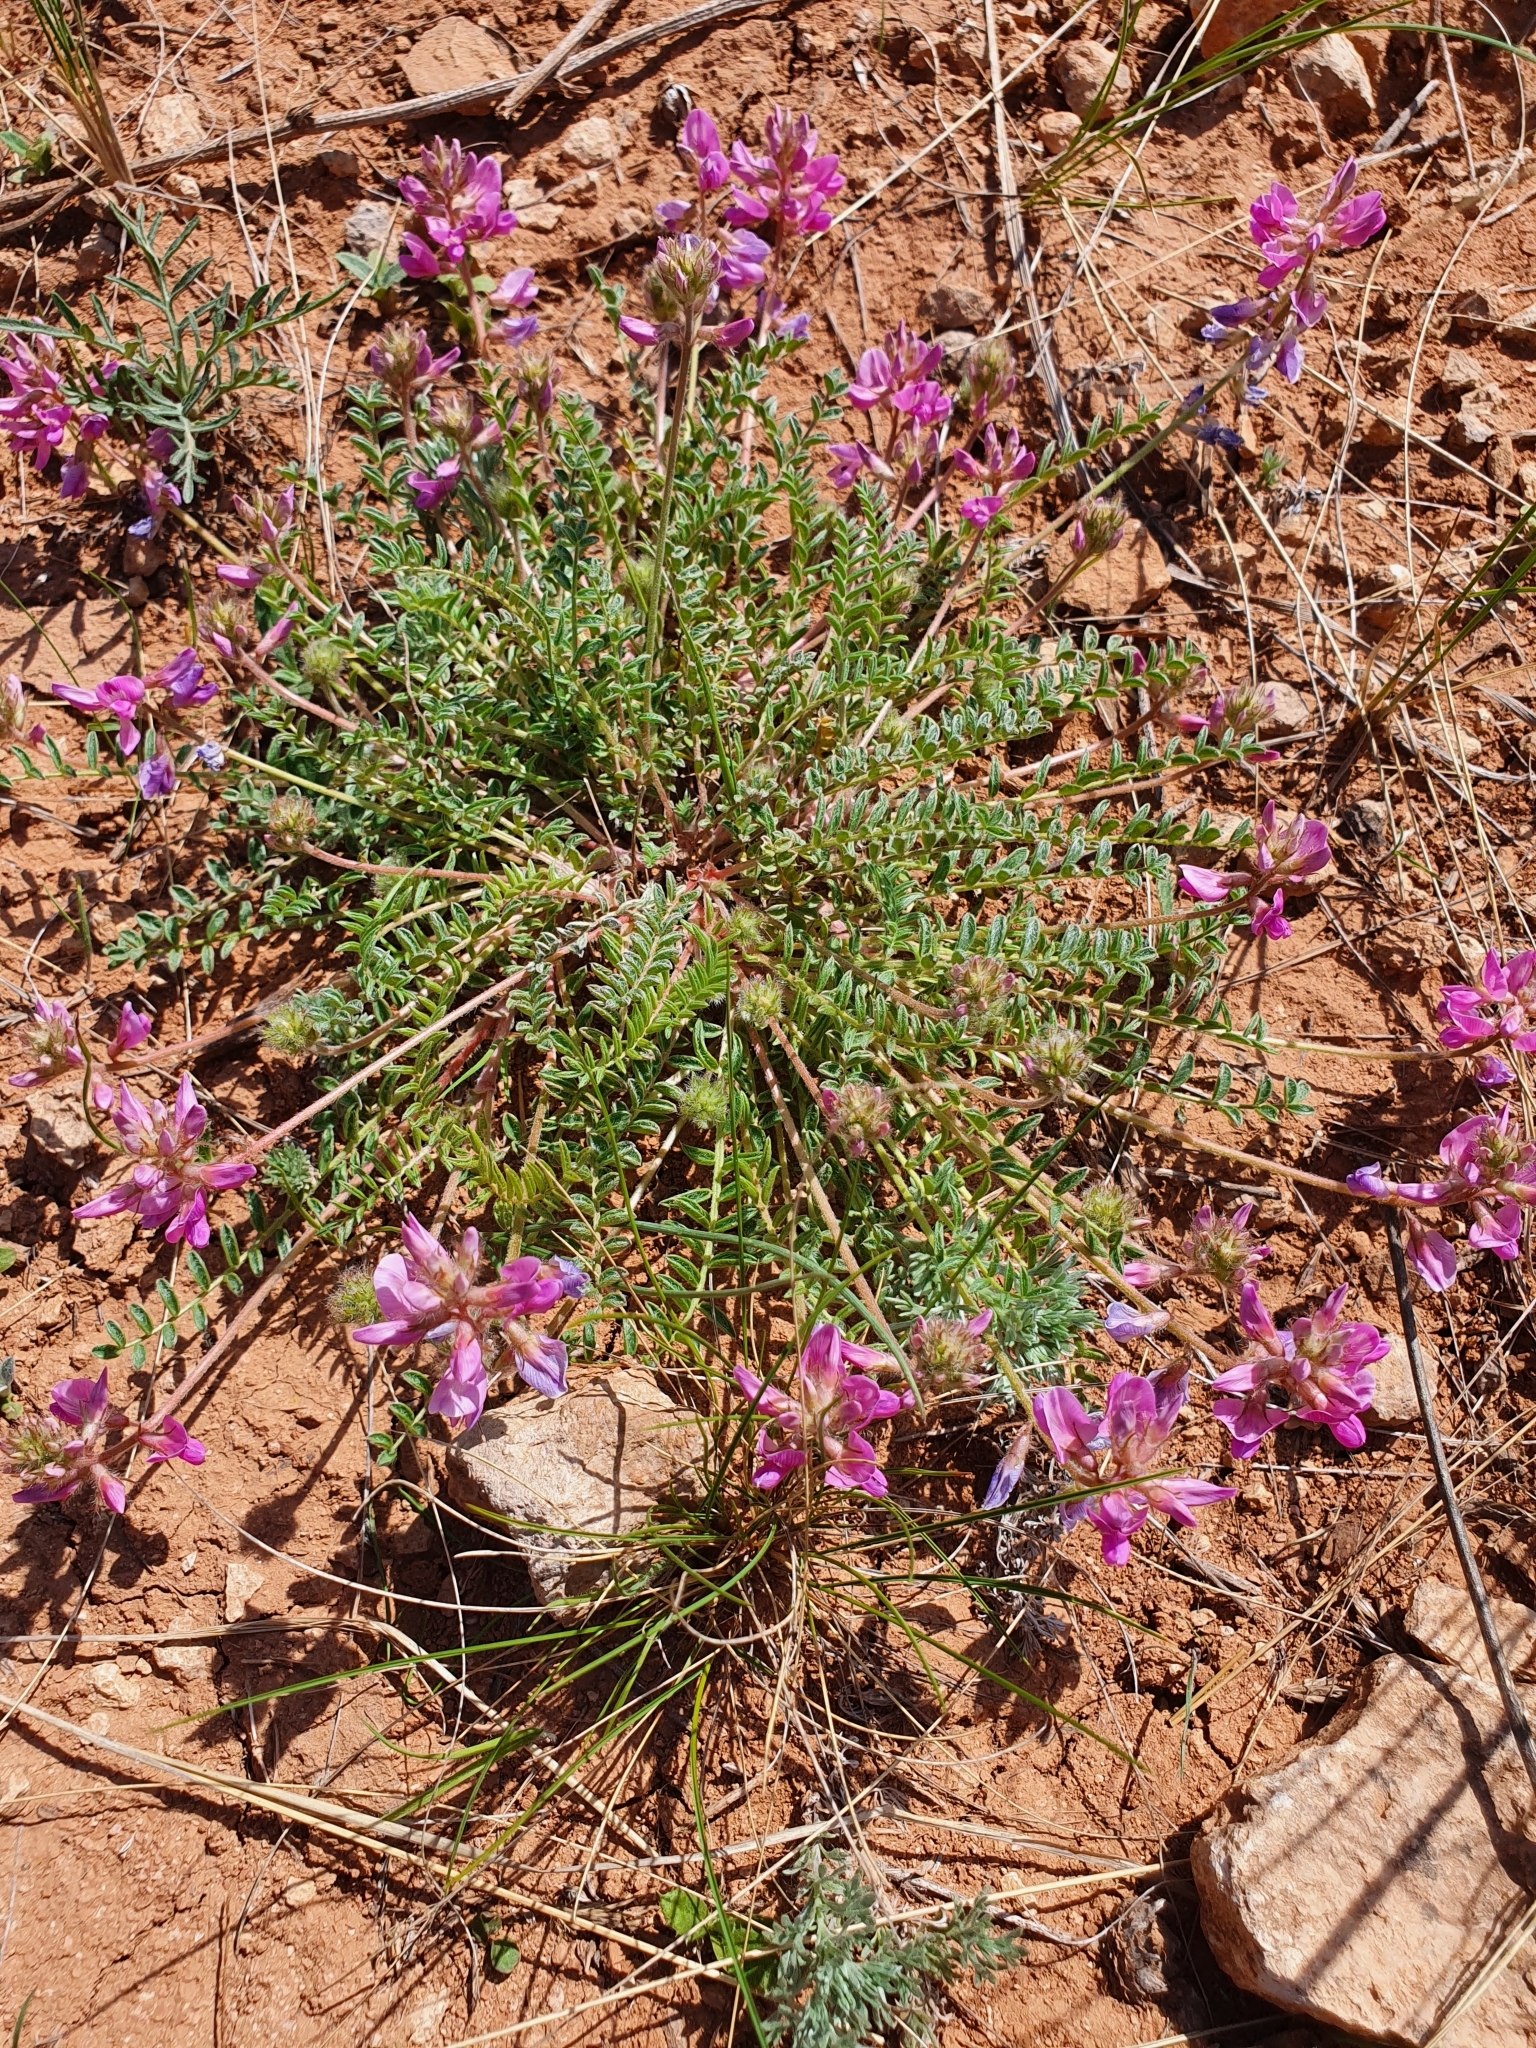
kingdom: Plantae
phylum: Tracheophyta
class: Magnoliopsida
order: Fabales
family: Fabaceae
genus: Oxytropis
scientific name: Oxytropis floribunda
